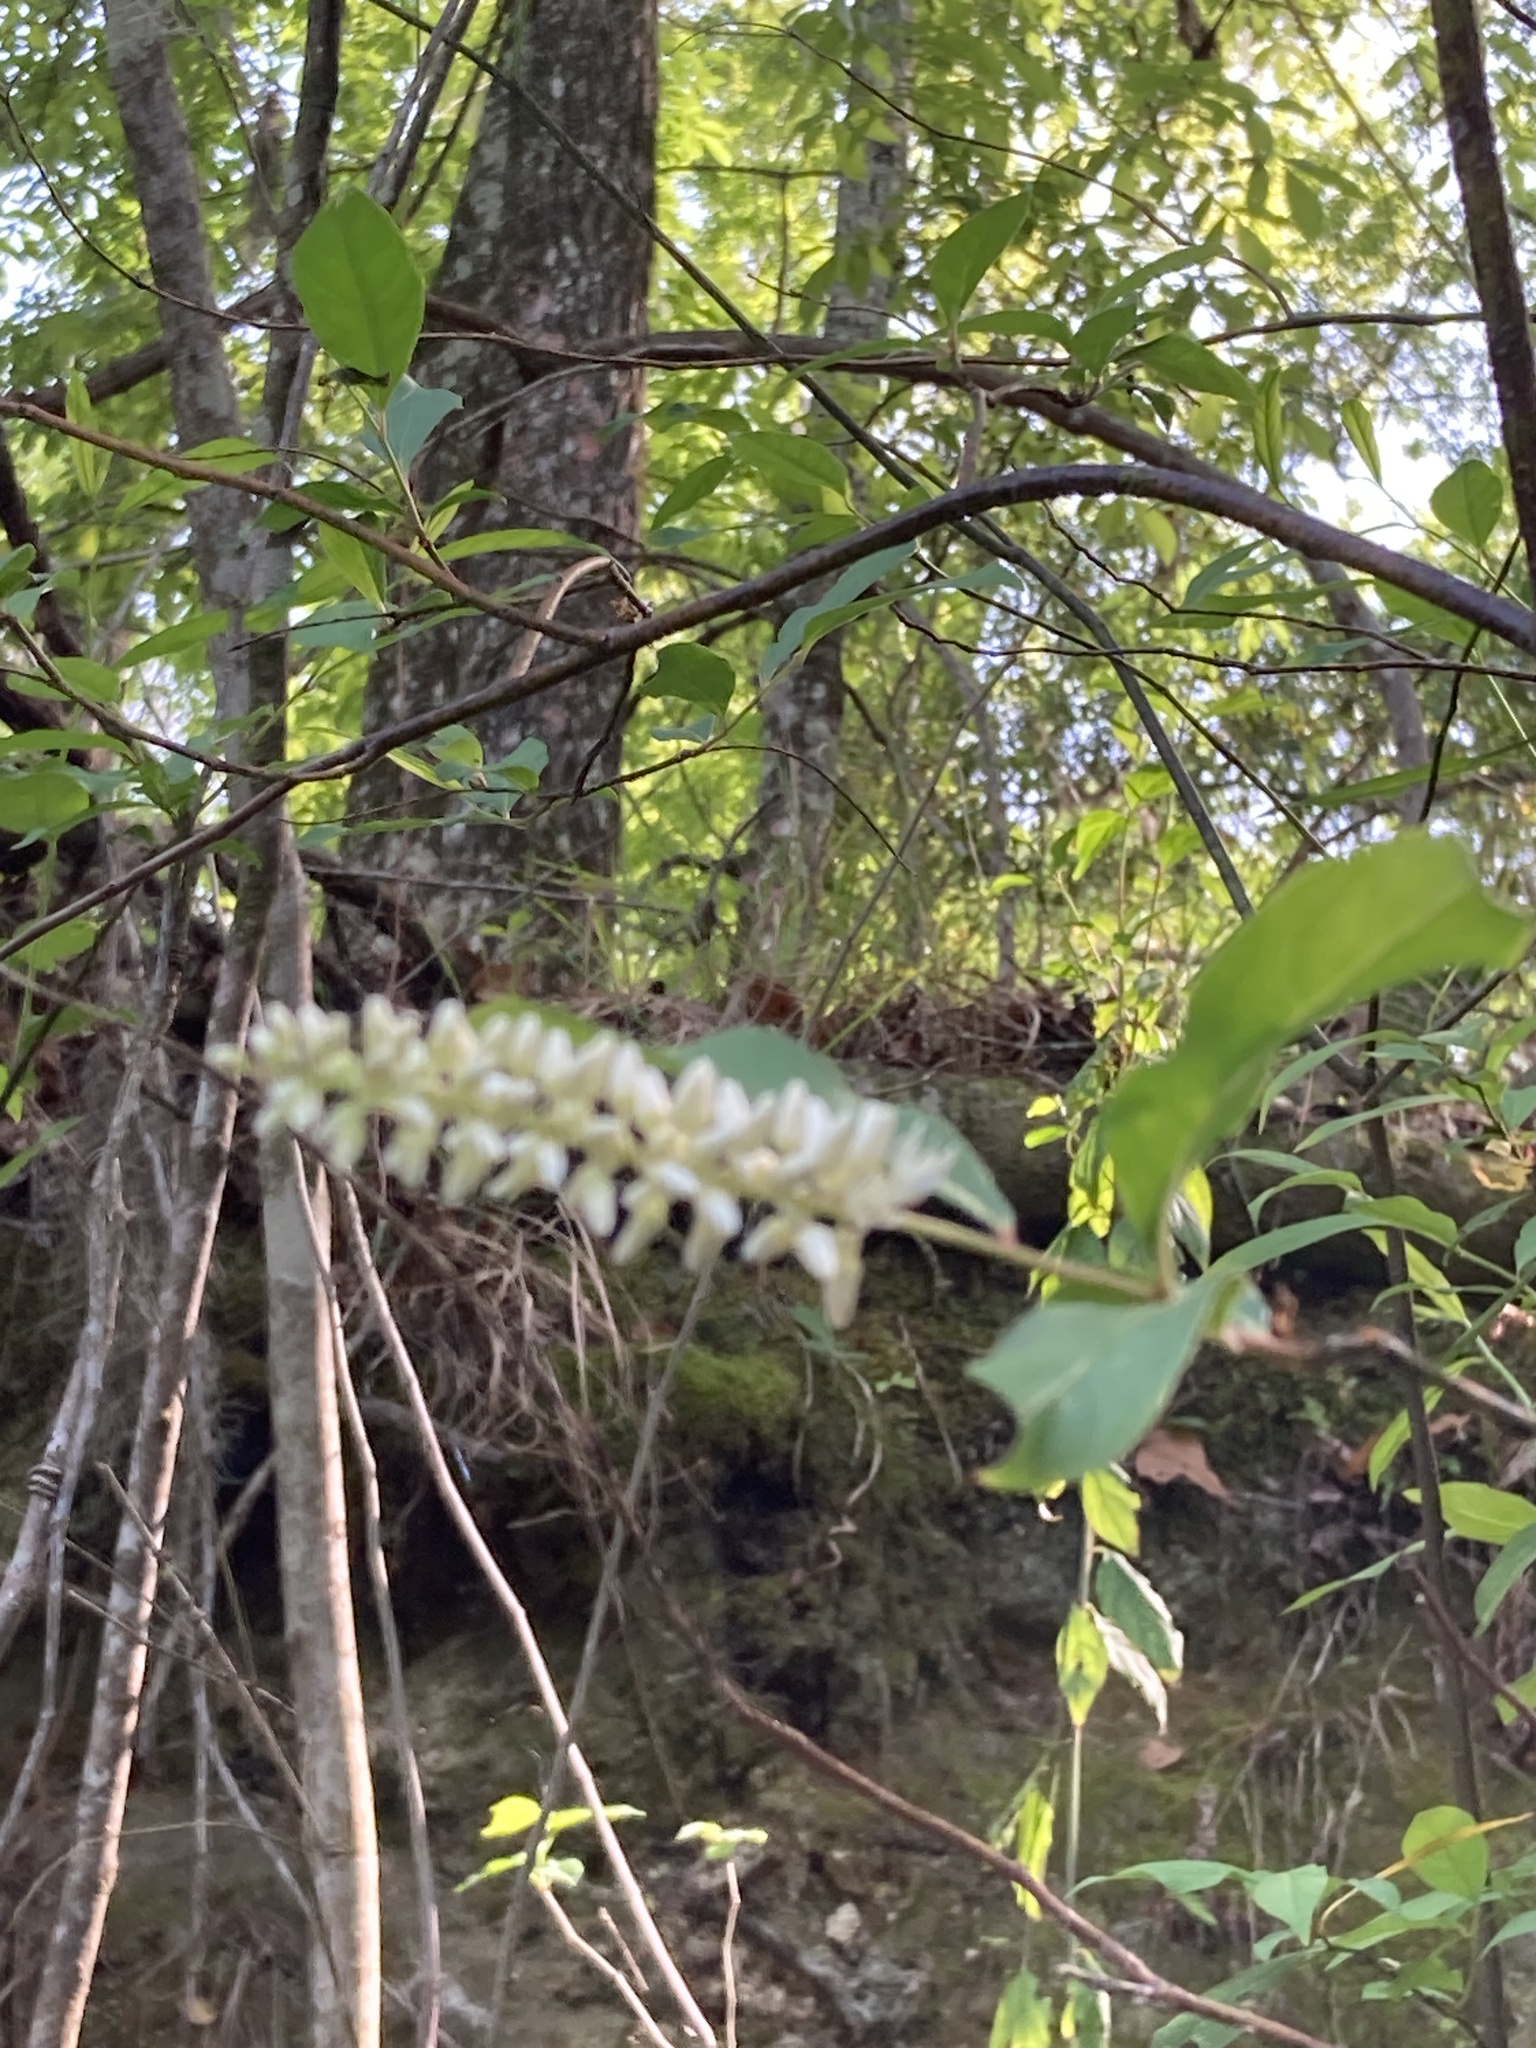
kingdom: Plantae
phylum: Tracheophyta
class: Magnoliopsida
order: Saxifragales
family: Iteaceae
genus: Itea
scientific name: Itea virginica
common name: Sweetspire
